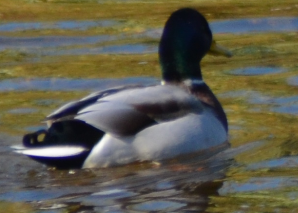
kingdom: Animalia
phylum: Chordata
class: Aves
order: Anseriformes
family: Anatidae
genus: Anas
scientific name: Anas platyrhynchos
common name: Mallard
